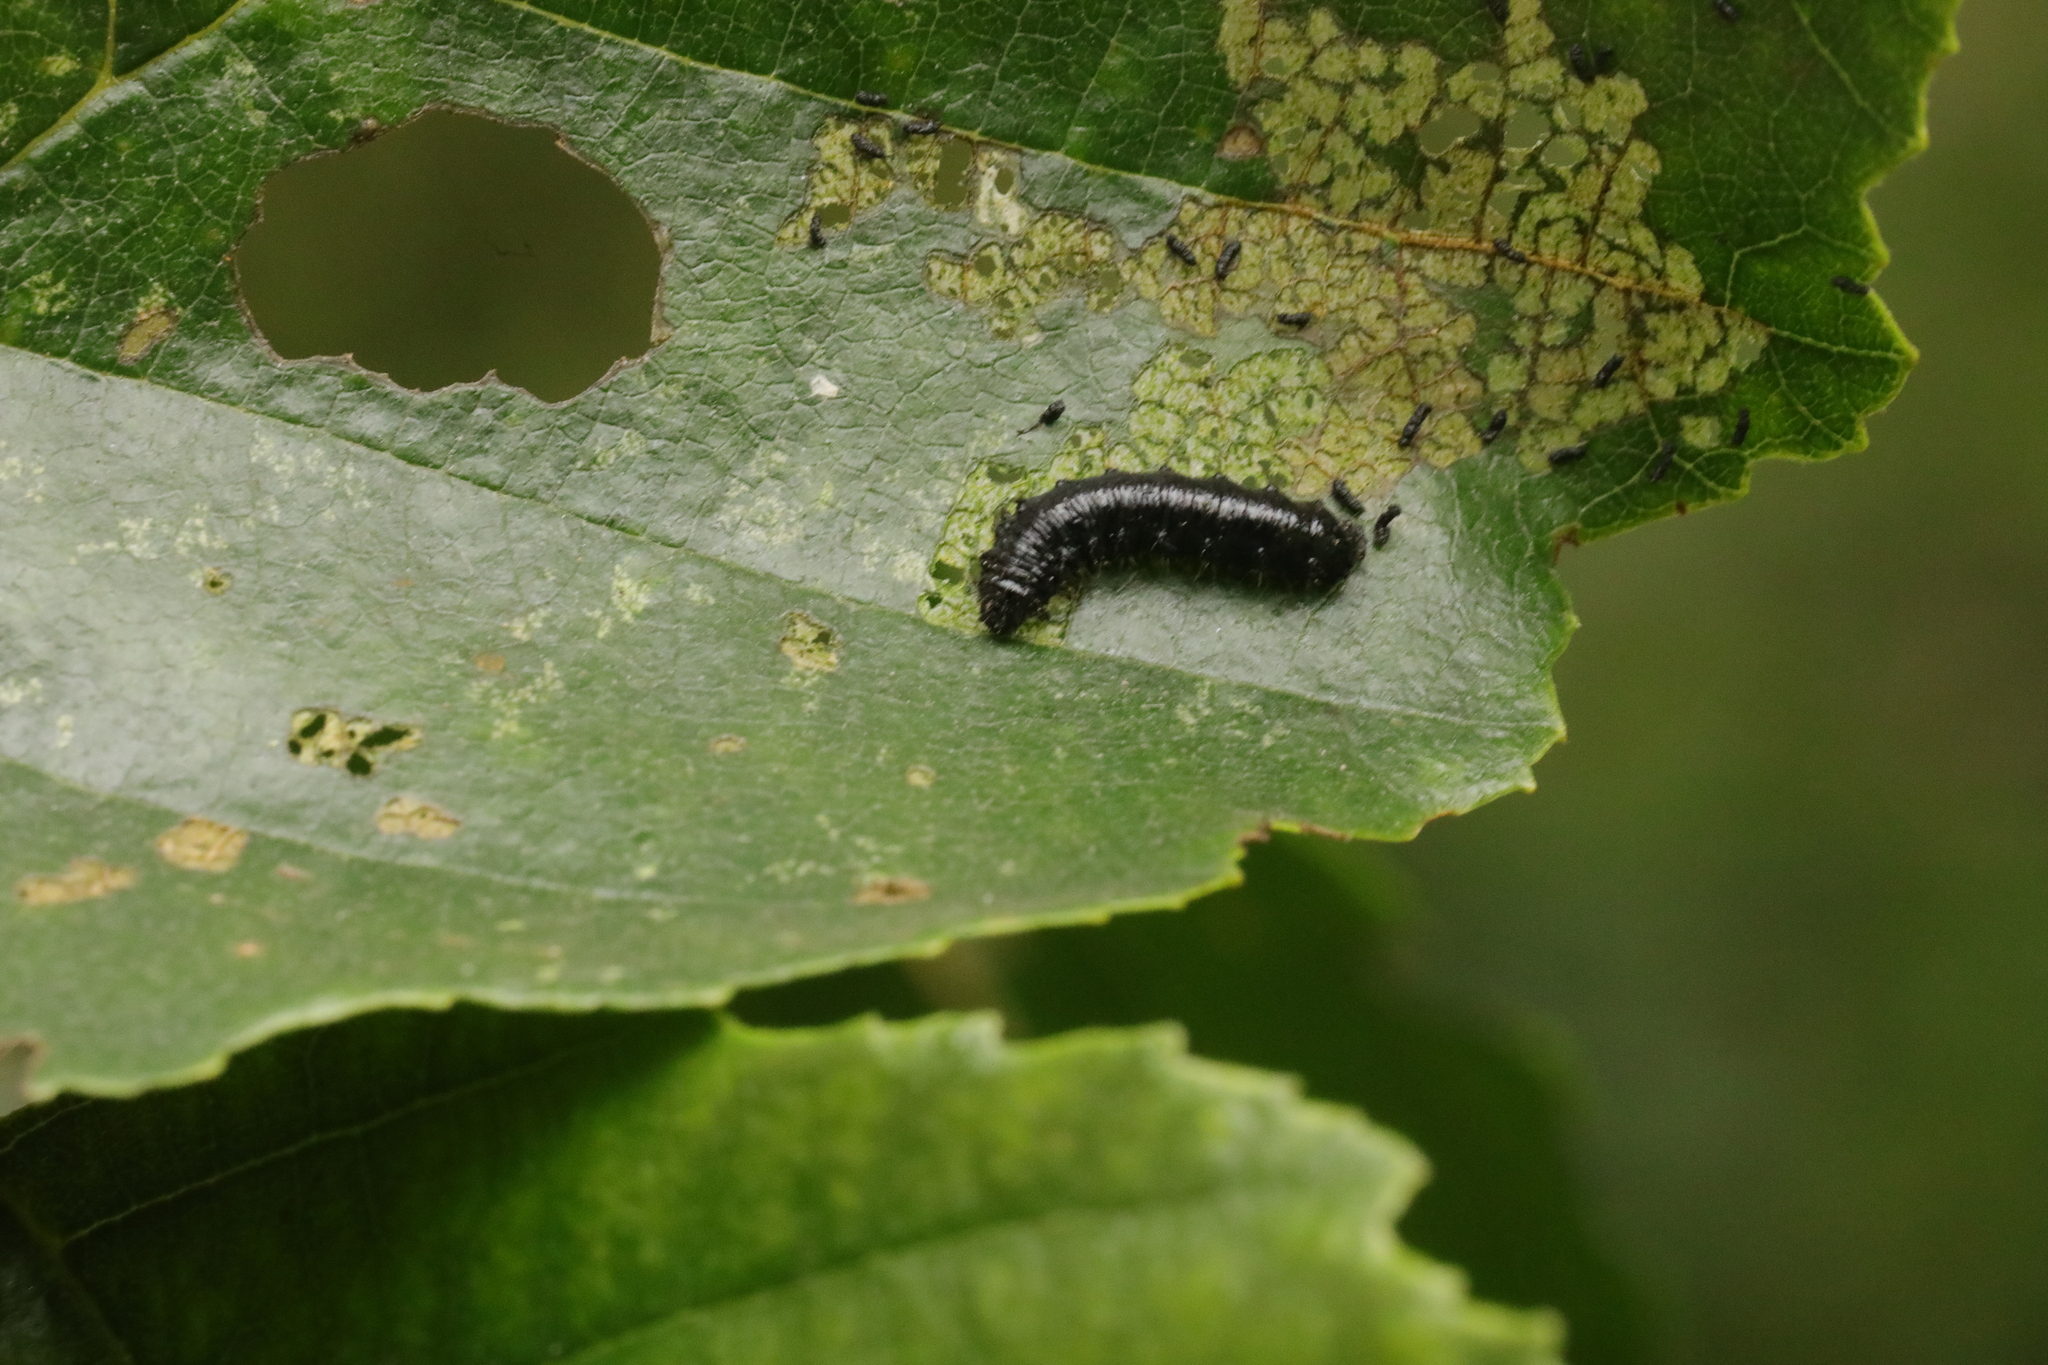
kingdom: Animalia
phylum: Arthropoda
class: Insecta
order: Coleoptera
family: Chrysomelidae
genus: Agelastica
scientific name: Agelastica alni
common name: Alder leaf beetle
